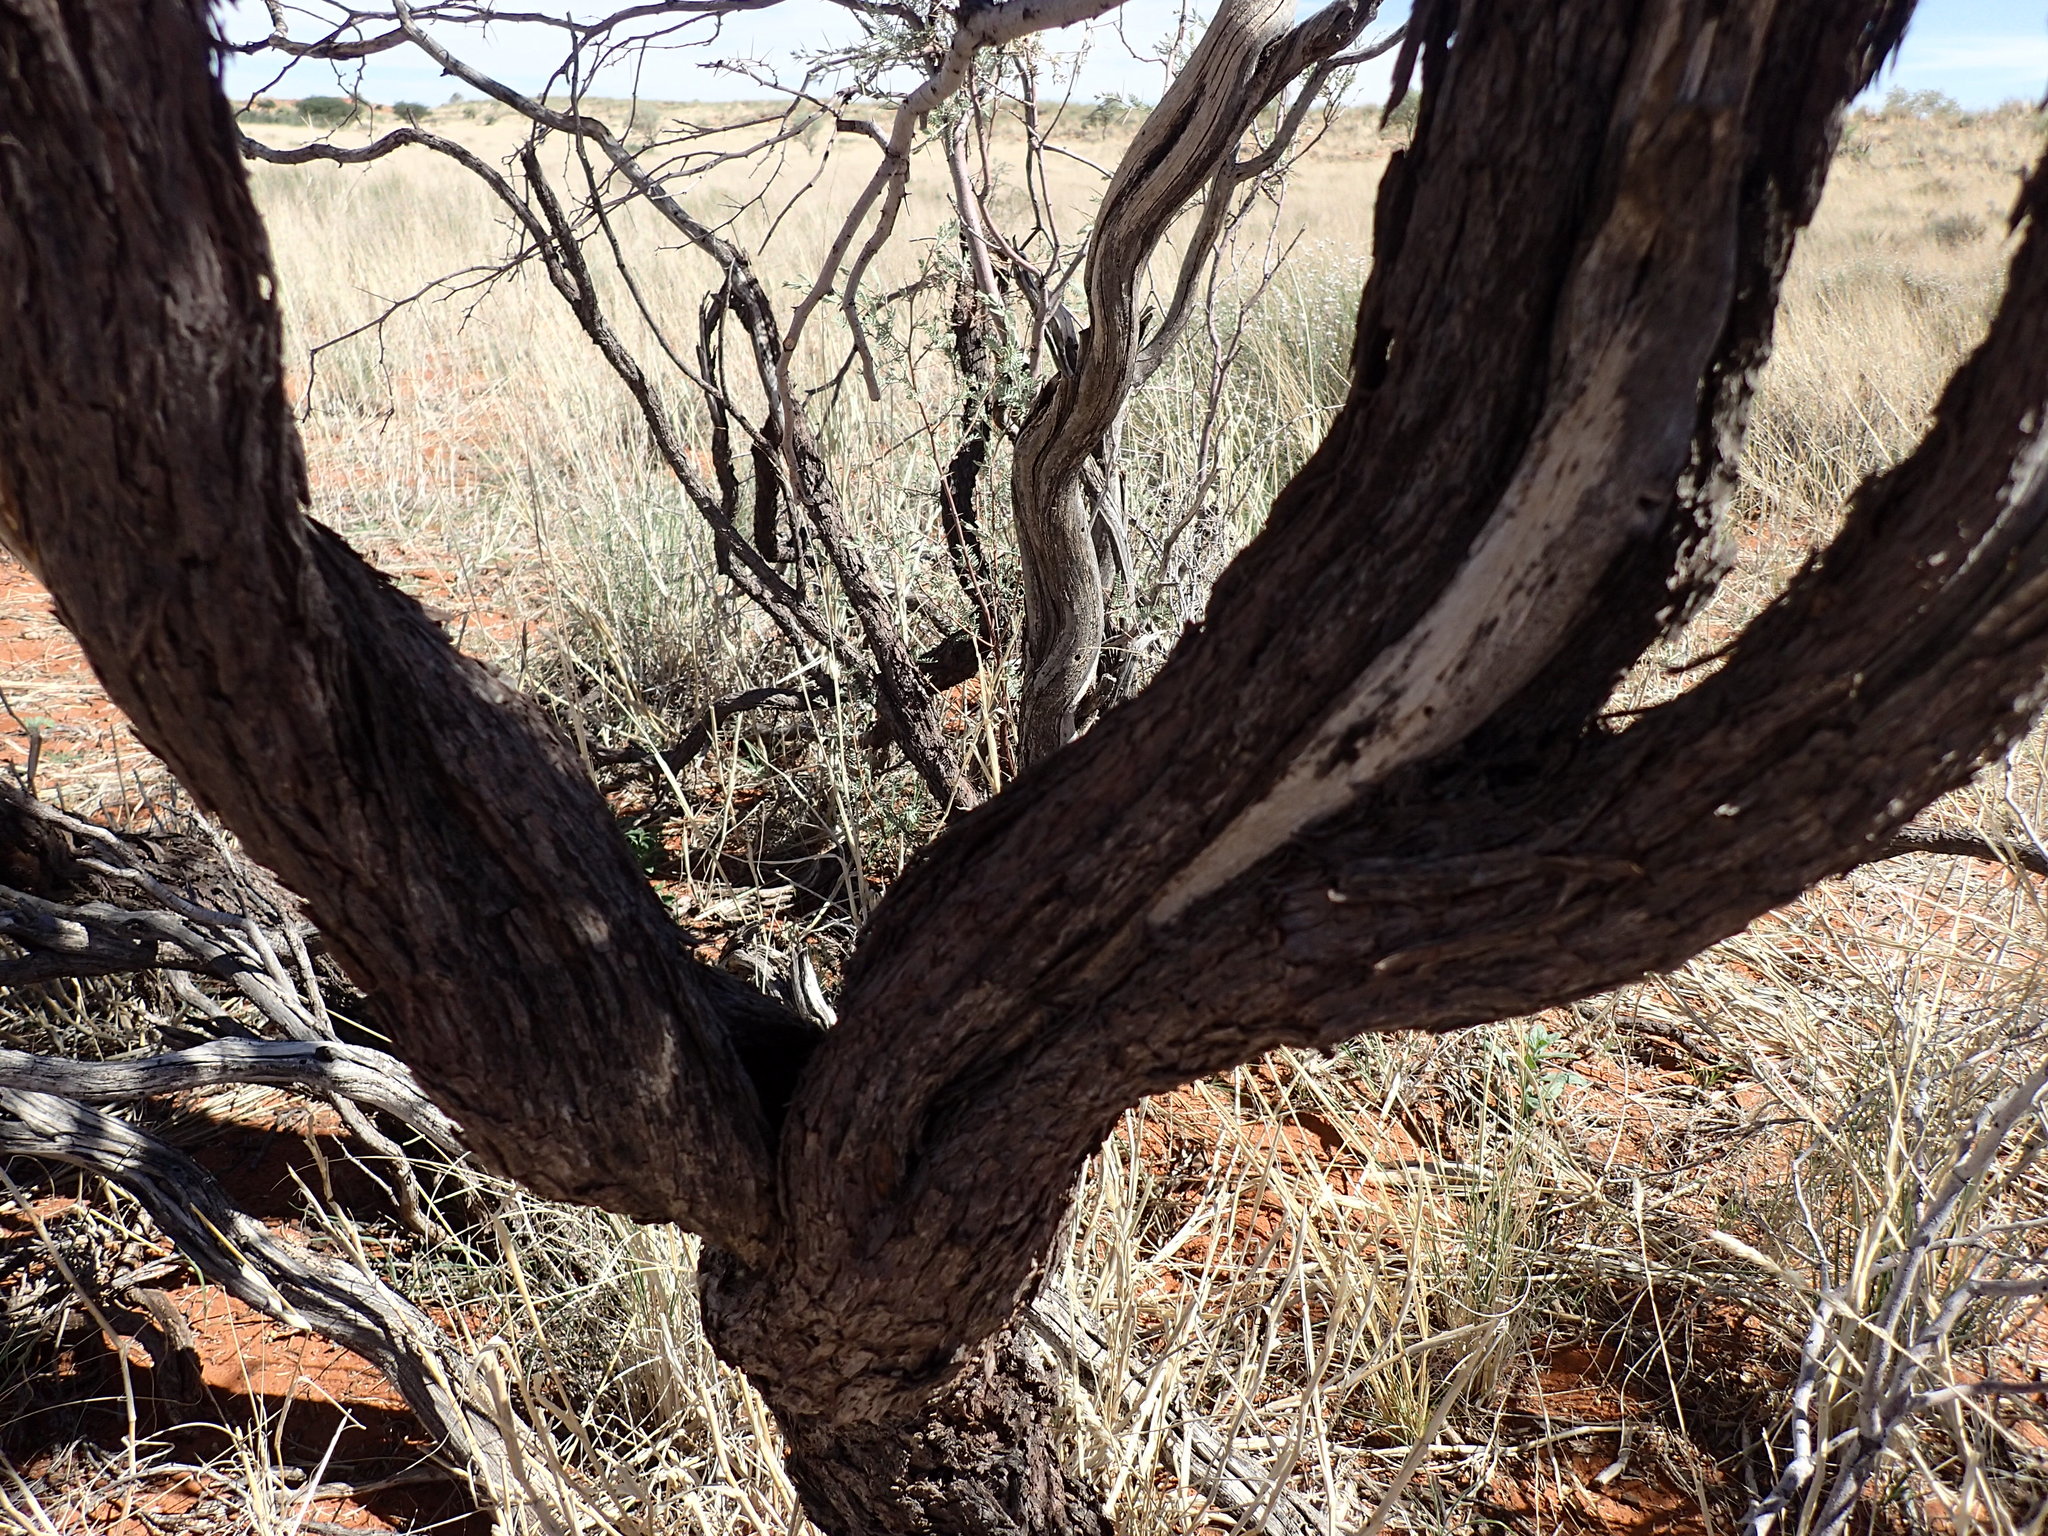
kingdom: Plantae
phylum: Tracheophyta
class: Magnoliopsida
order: Fabales
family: Fabaceae
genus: Vachellia
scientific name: Vachellia haematoxylon
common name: Grey camel thorn
